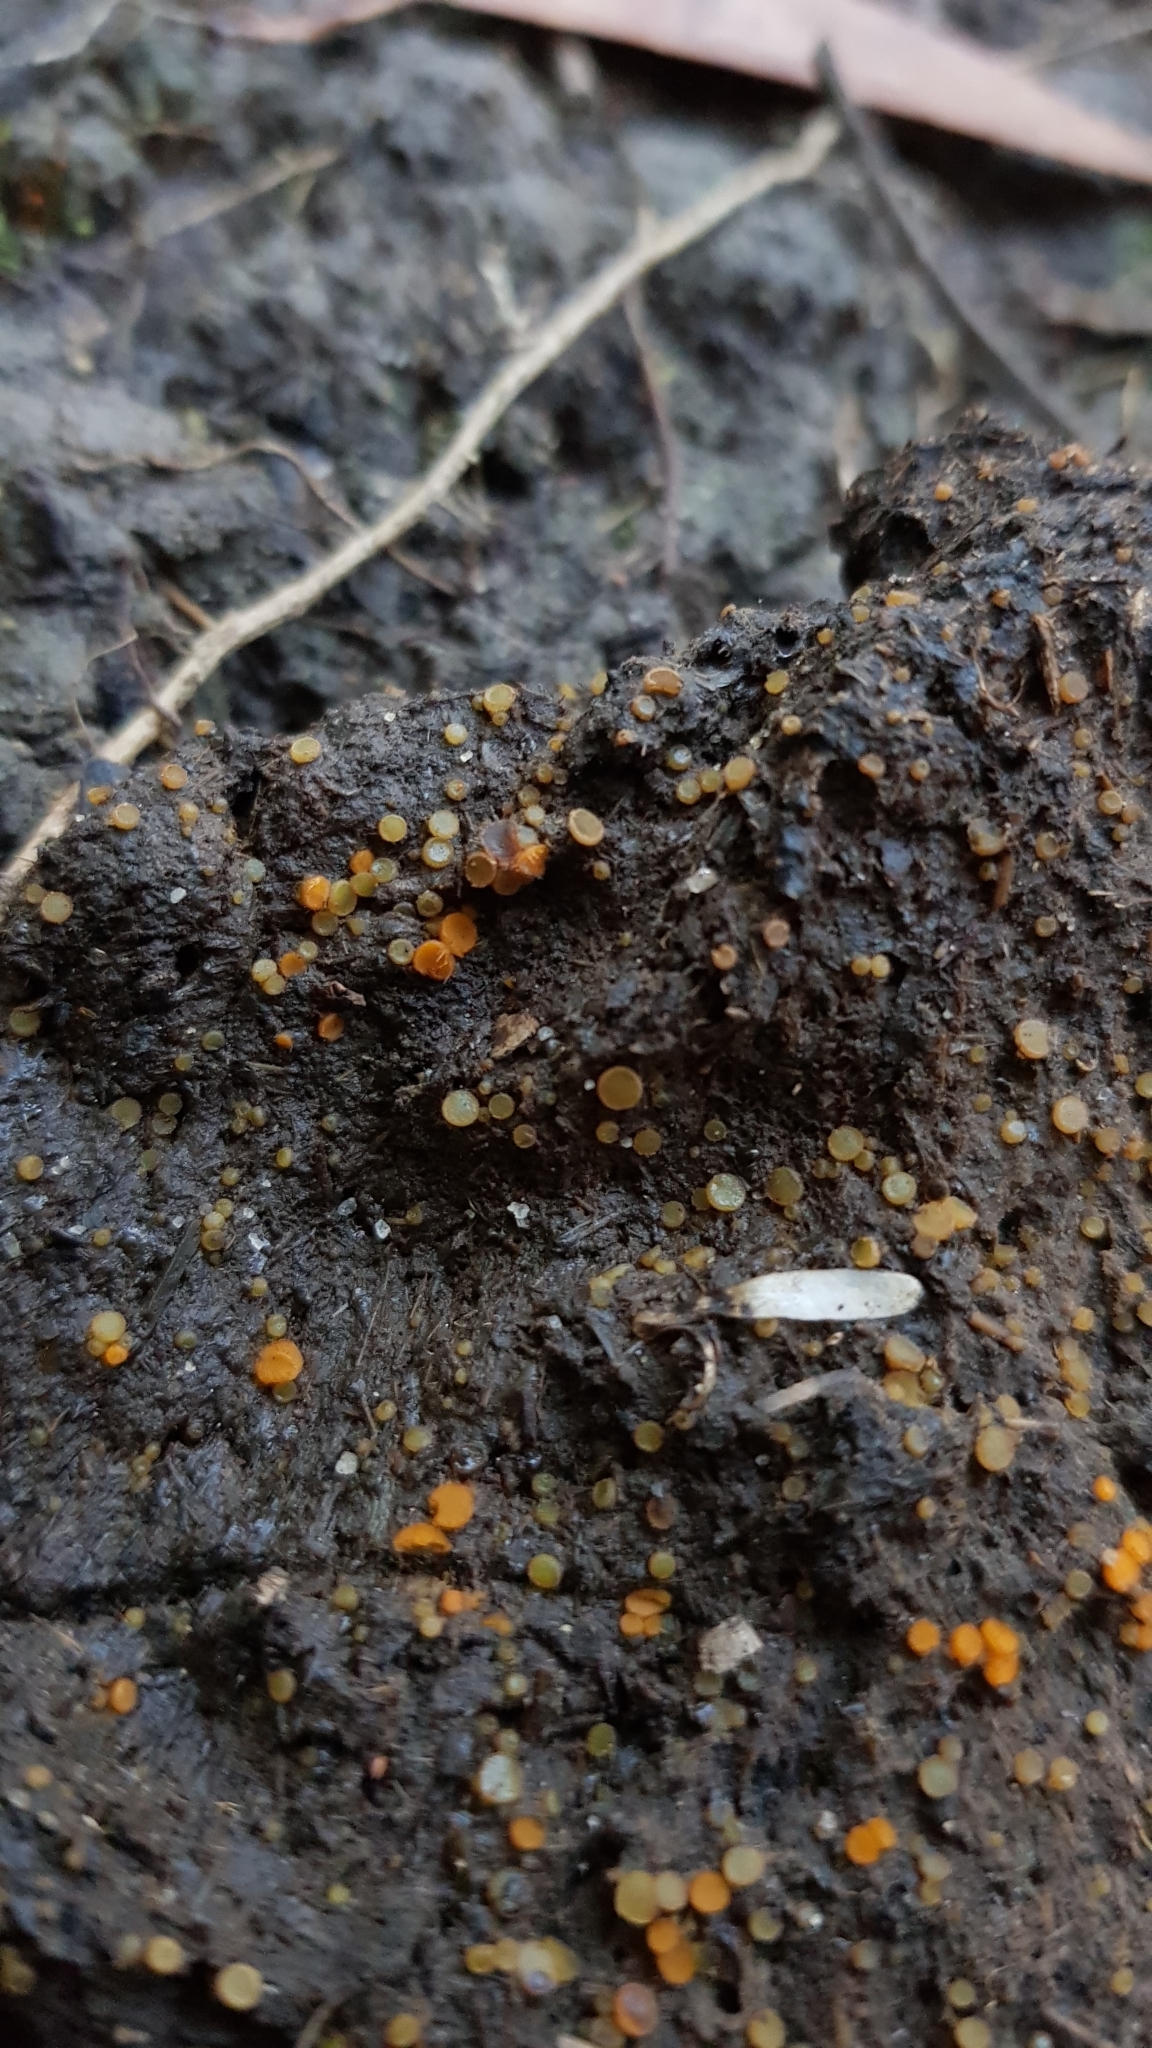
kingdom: Fungi
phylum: Ascomycota
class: Pezizomycetes
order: Pezizales
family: Pyronemataceae
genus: Cheilymenia
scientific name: Cheilymenia raripila
